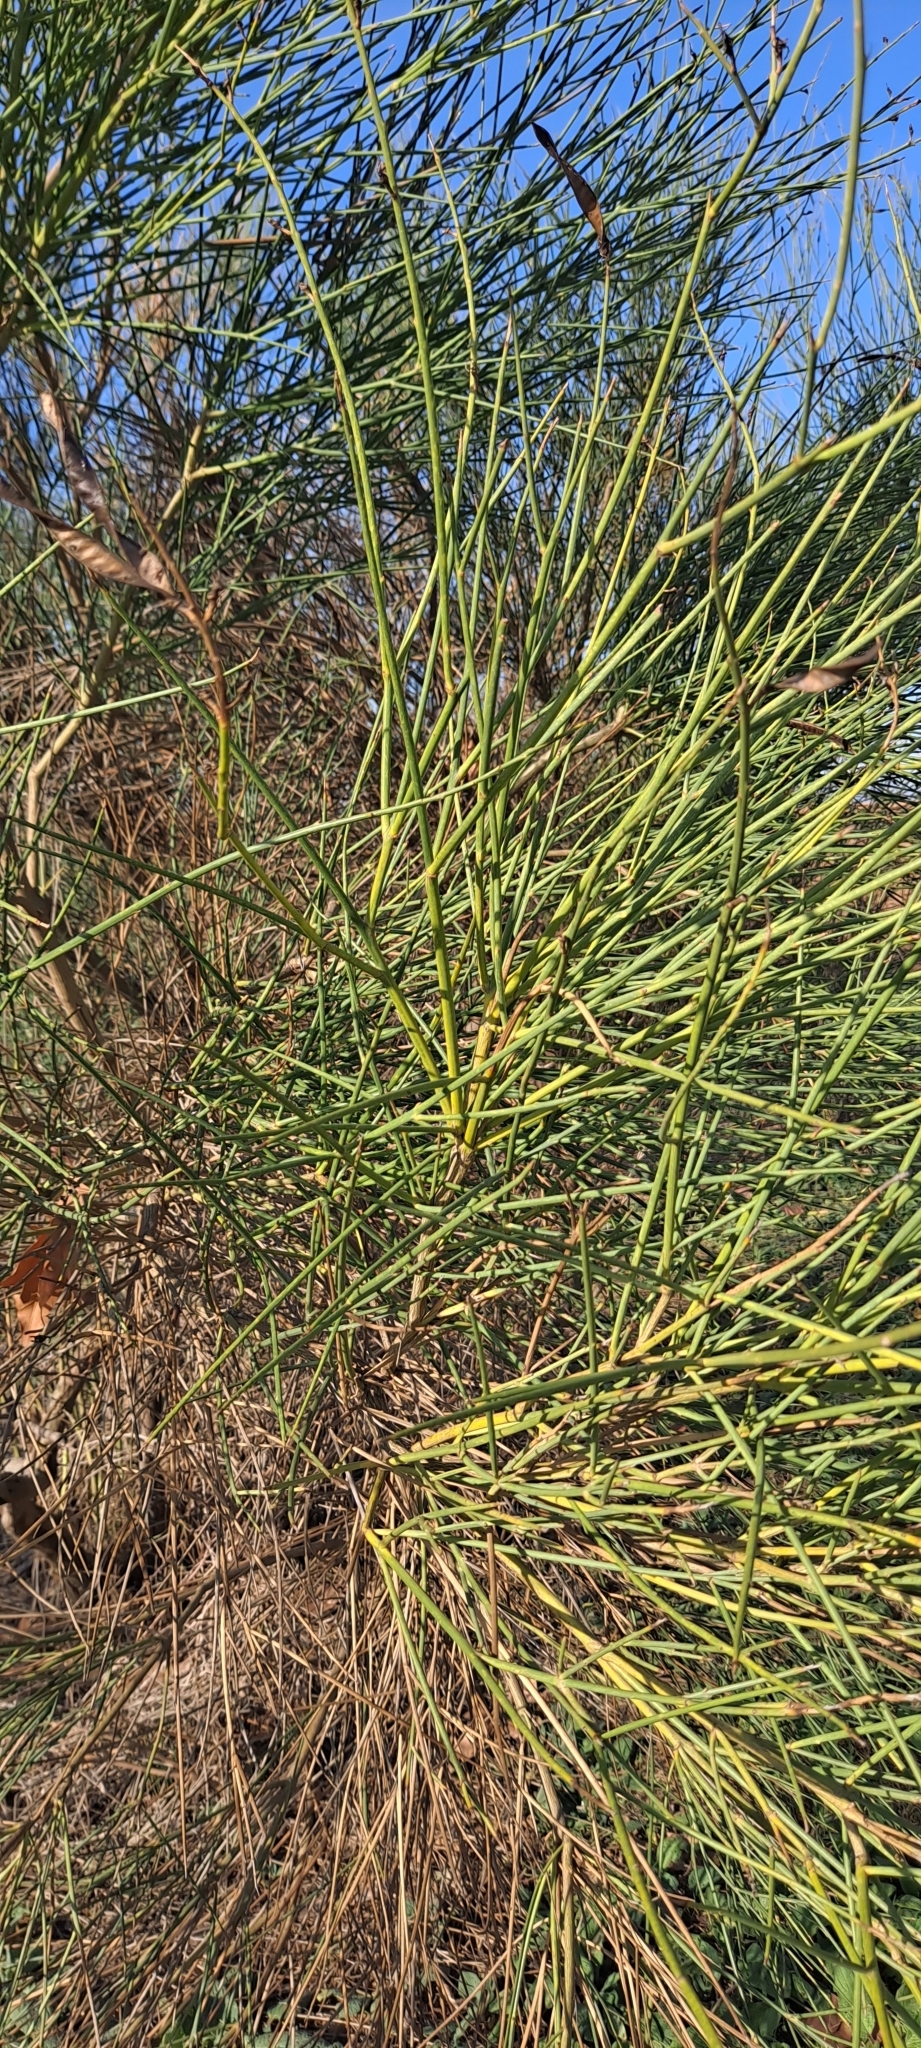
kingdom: Plantae
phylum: Tracheophyta
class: Magnoliopsida
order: Fabales
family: Fabaceae
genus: Spartium
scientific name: Spartium junceum
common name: Spanish broom
